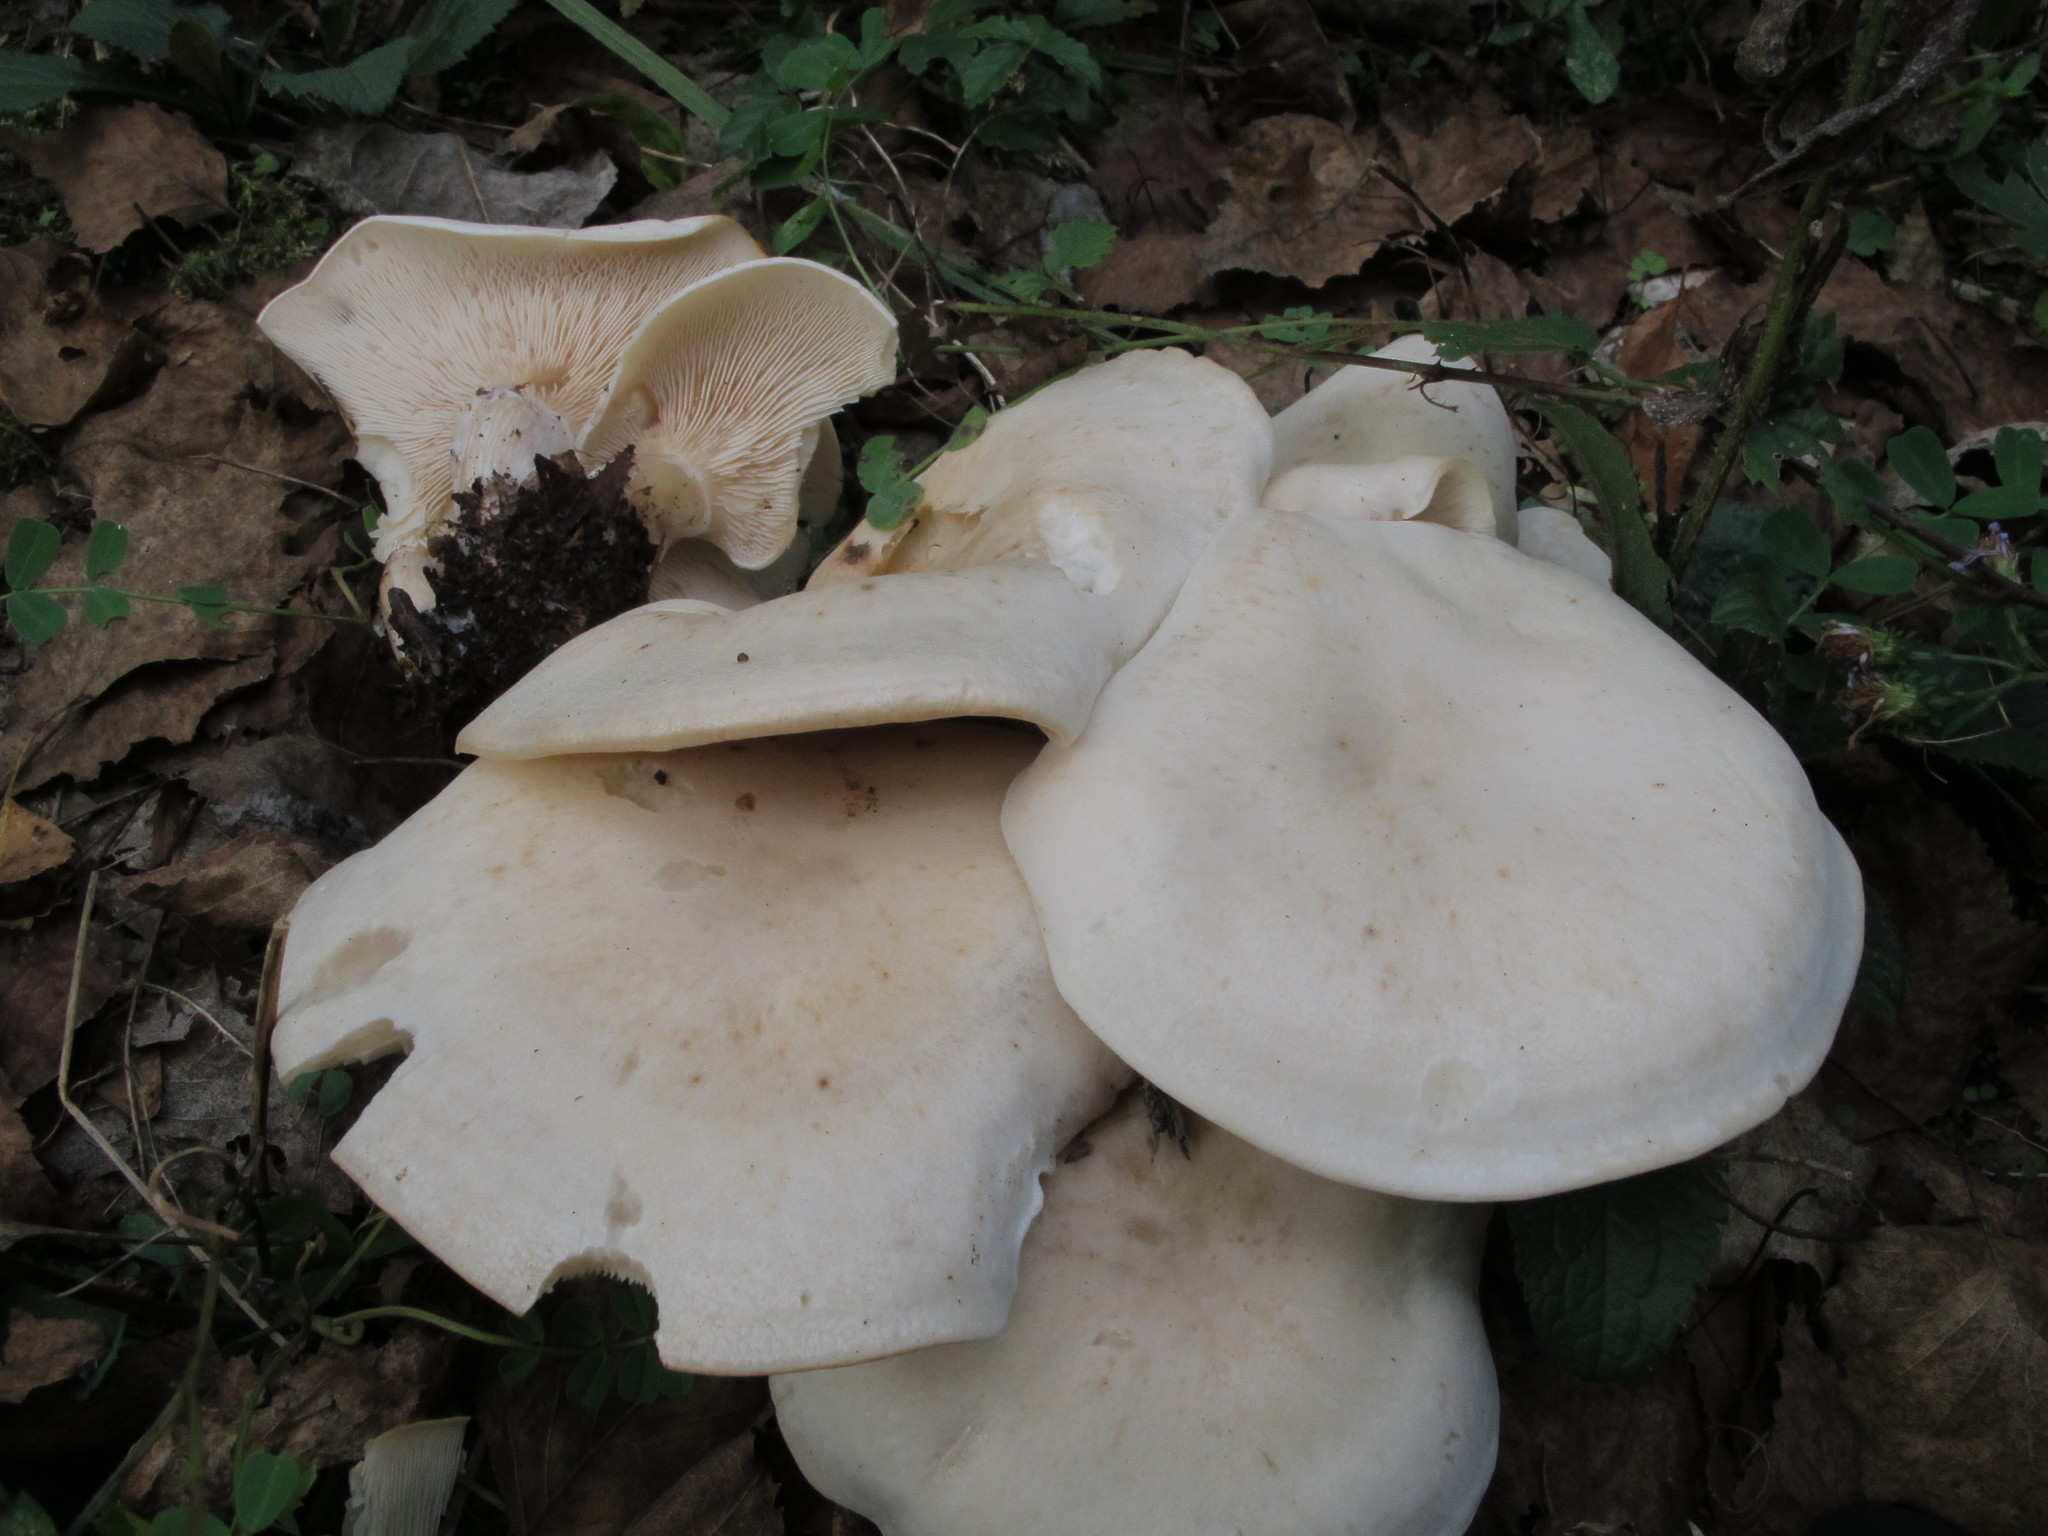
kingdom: Fungi
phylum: Basidiomycota
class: Agaricomycetes
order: Agaricales
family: Tricholomataceae
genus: Lepista
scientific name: Lepista subconnexa
